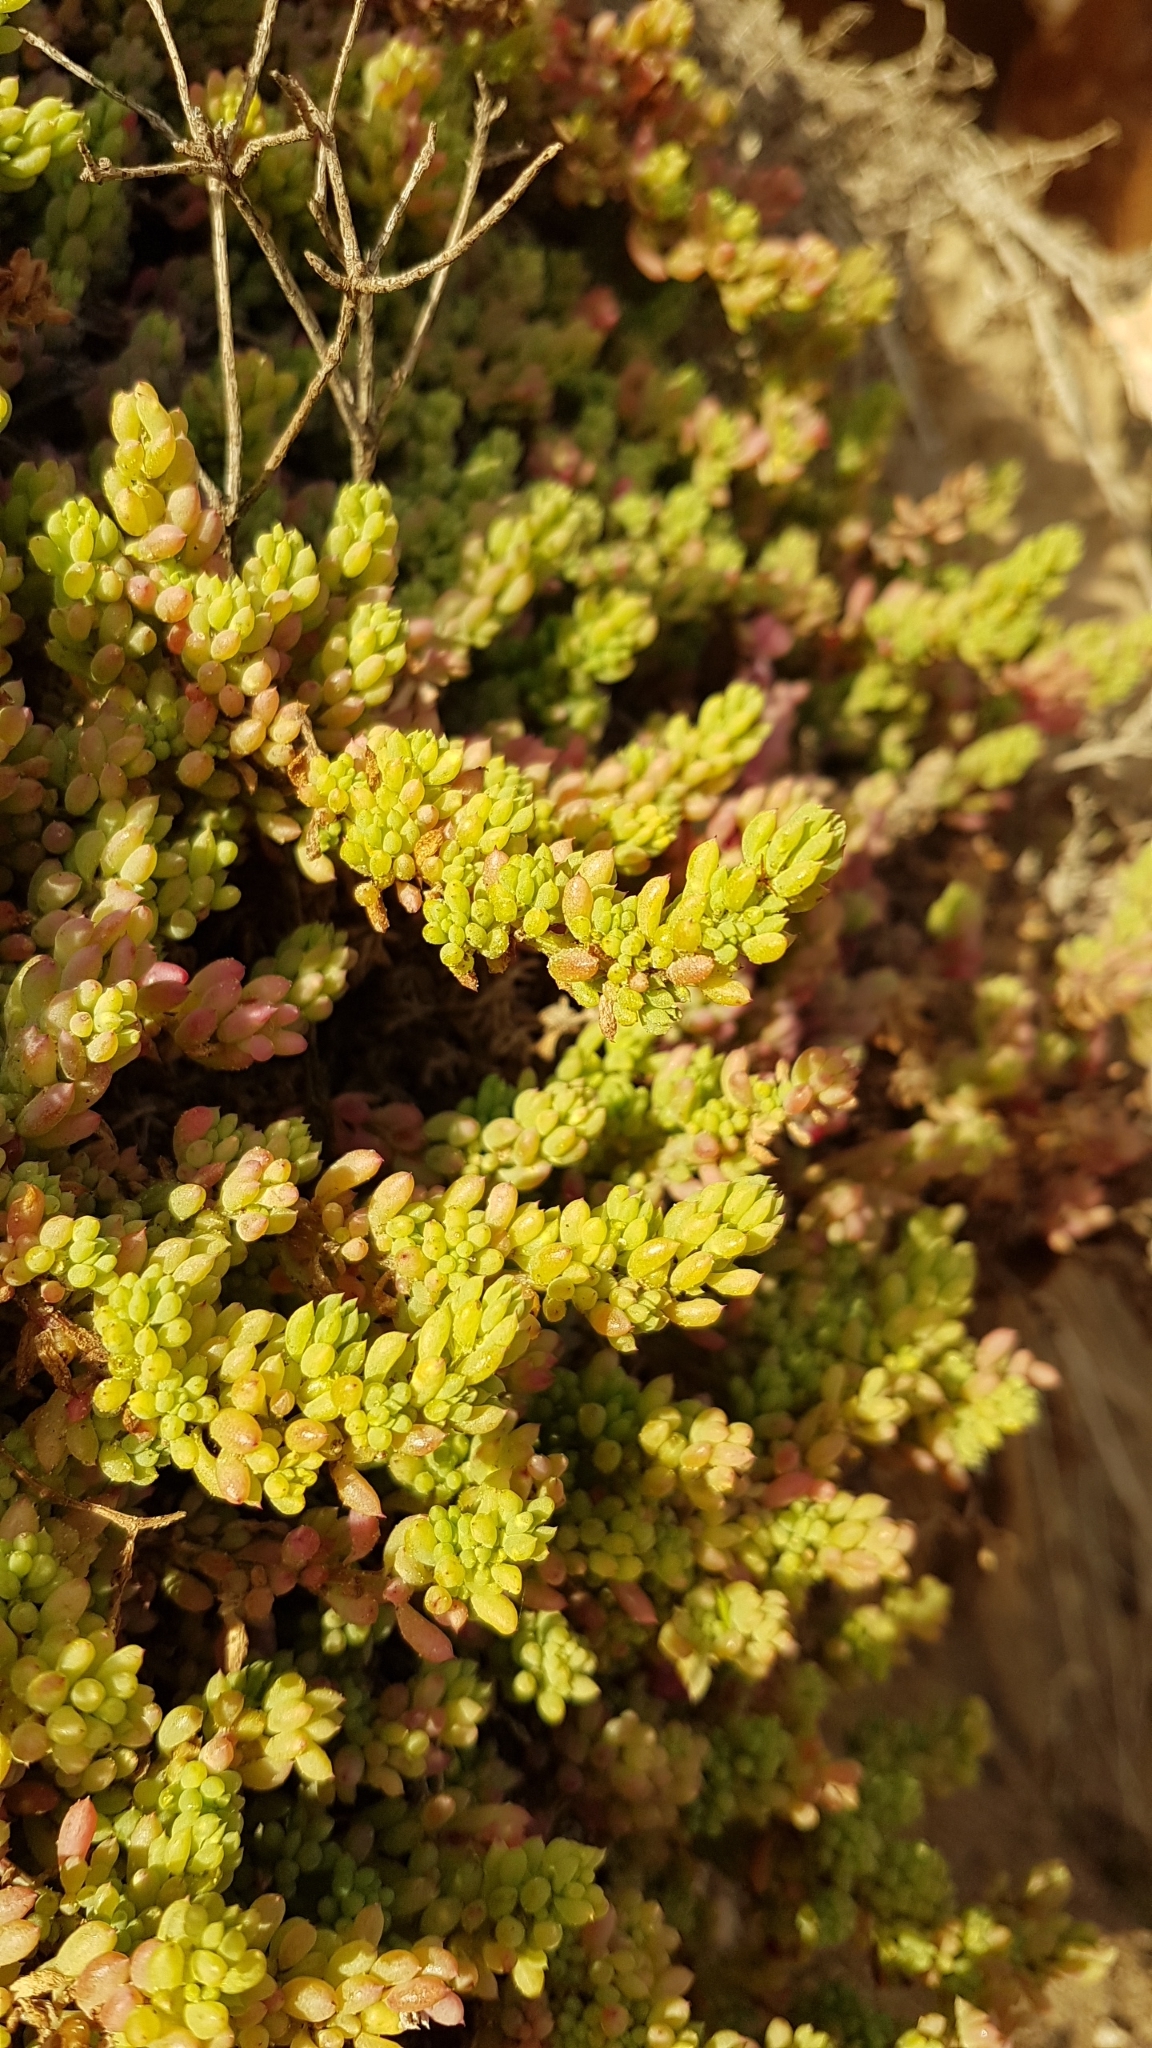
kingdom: Plantae
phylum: Tracheophyta
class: Magnoliopsida
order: Caryophyllales
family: Amaranthaceae
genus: Threlkeldia
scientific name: Threlkeldia diffusa
